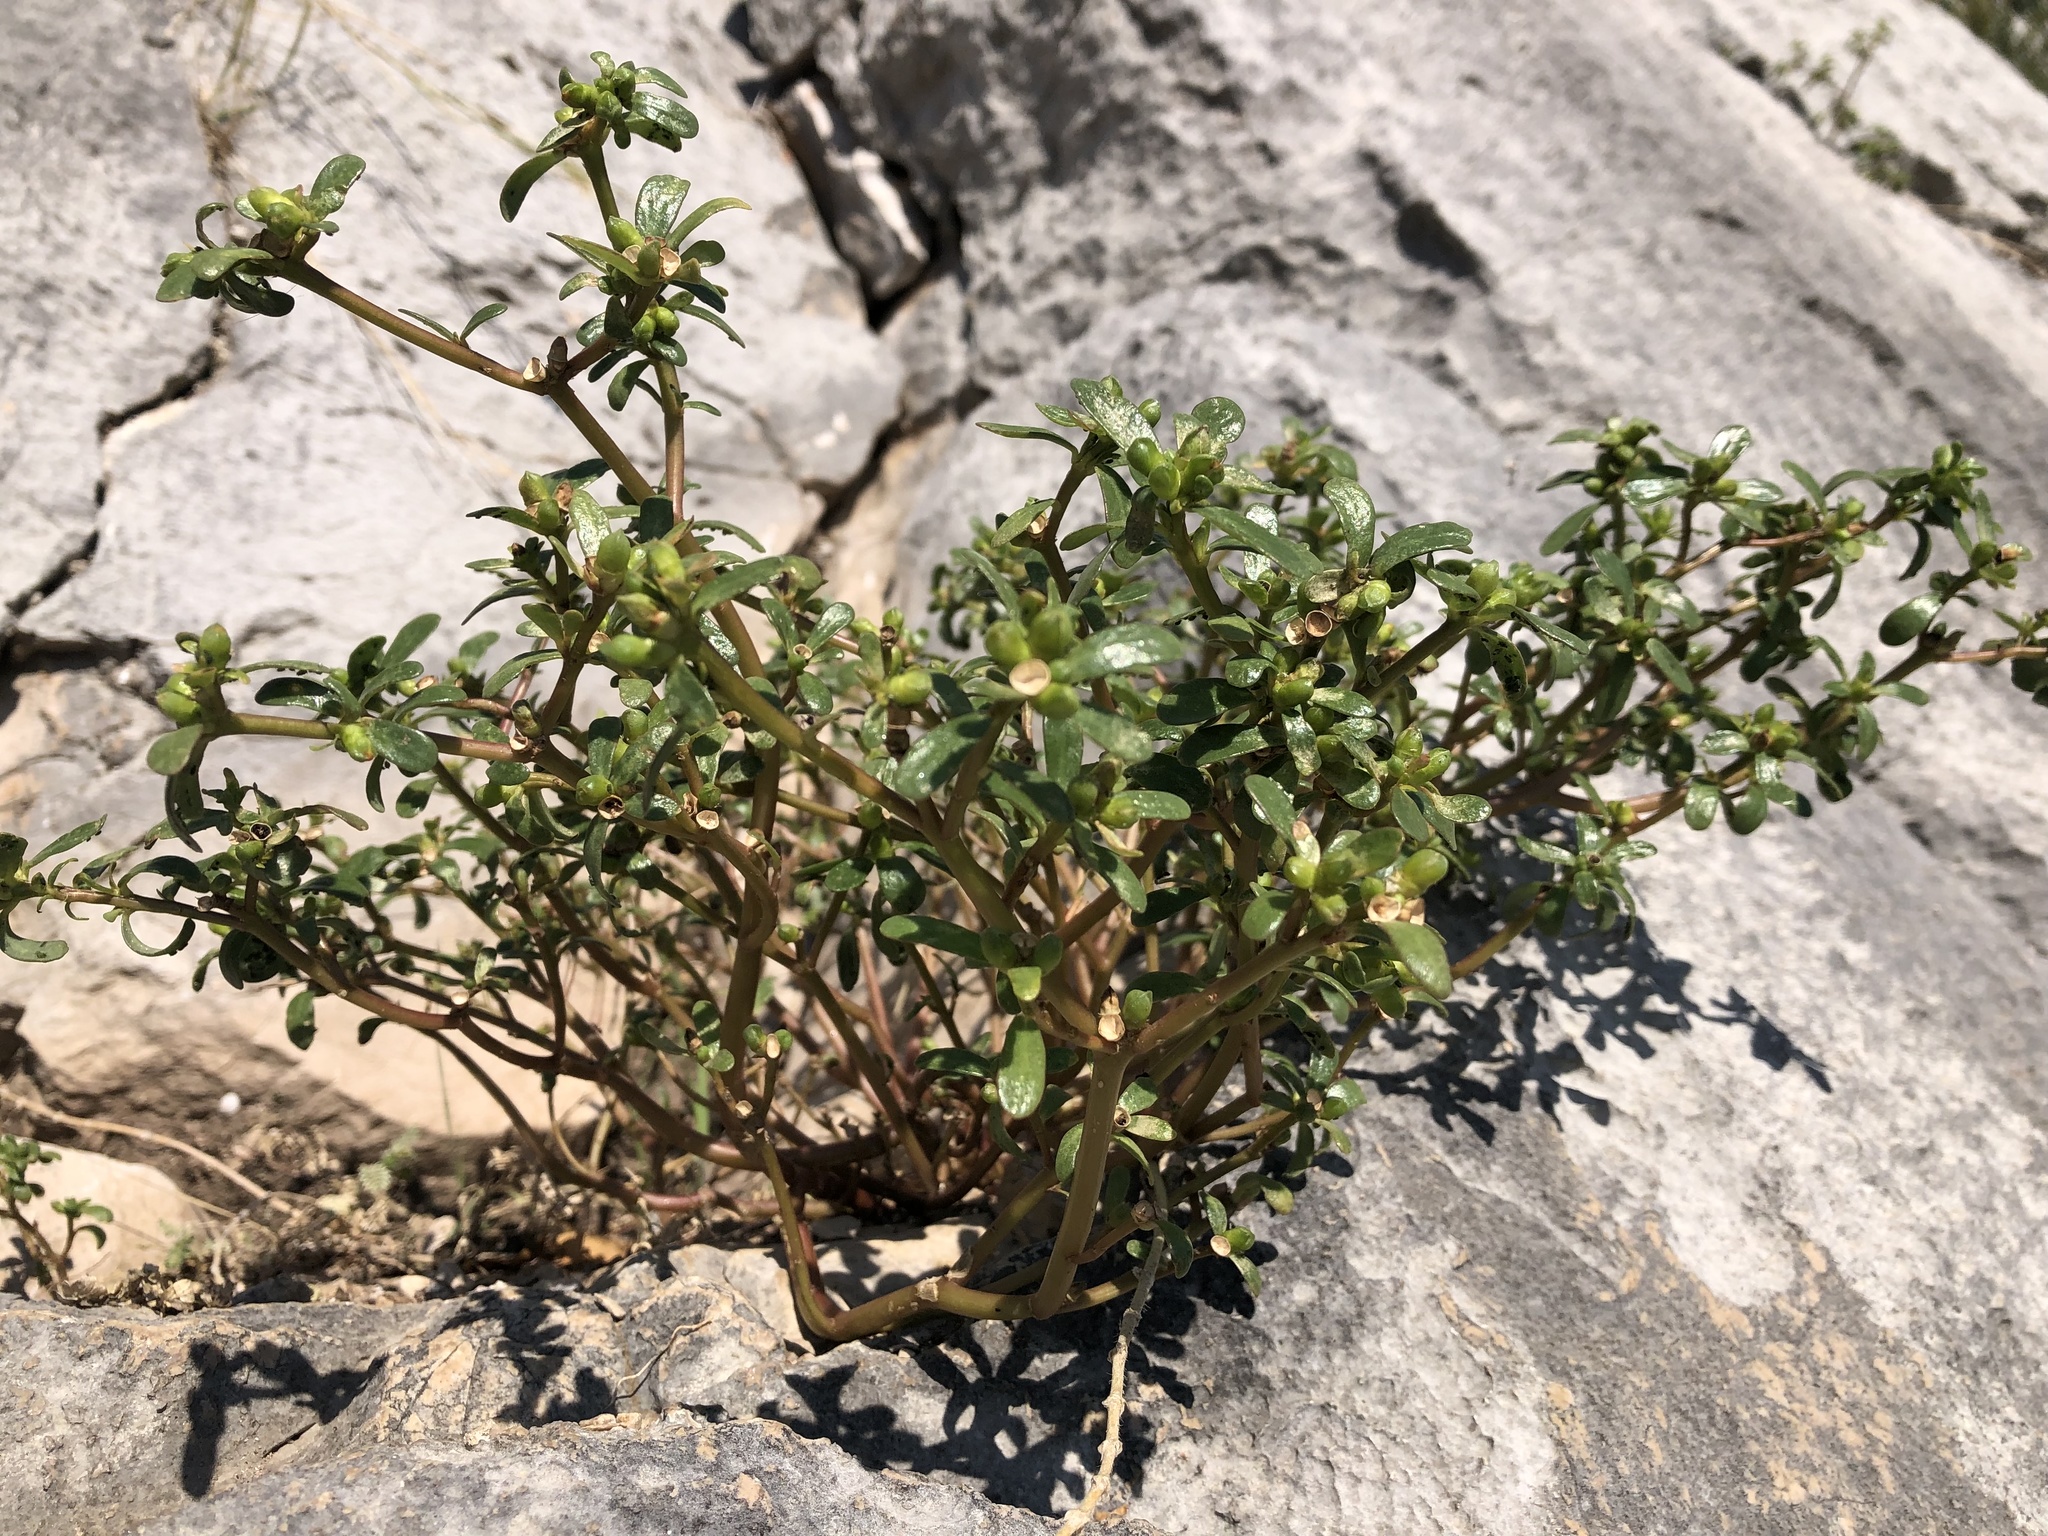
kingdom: Plantae
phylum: Tracheophyta
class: Magnoliopsida
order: Caryophyllales
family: Portulacaceae
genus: Portulaca
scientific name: Portulaca oleracea
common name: Common purslane
